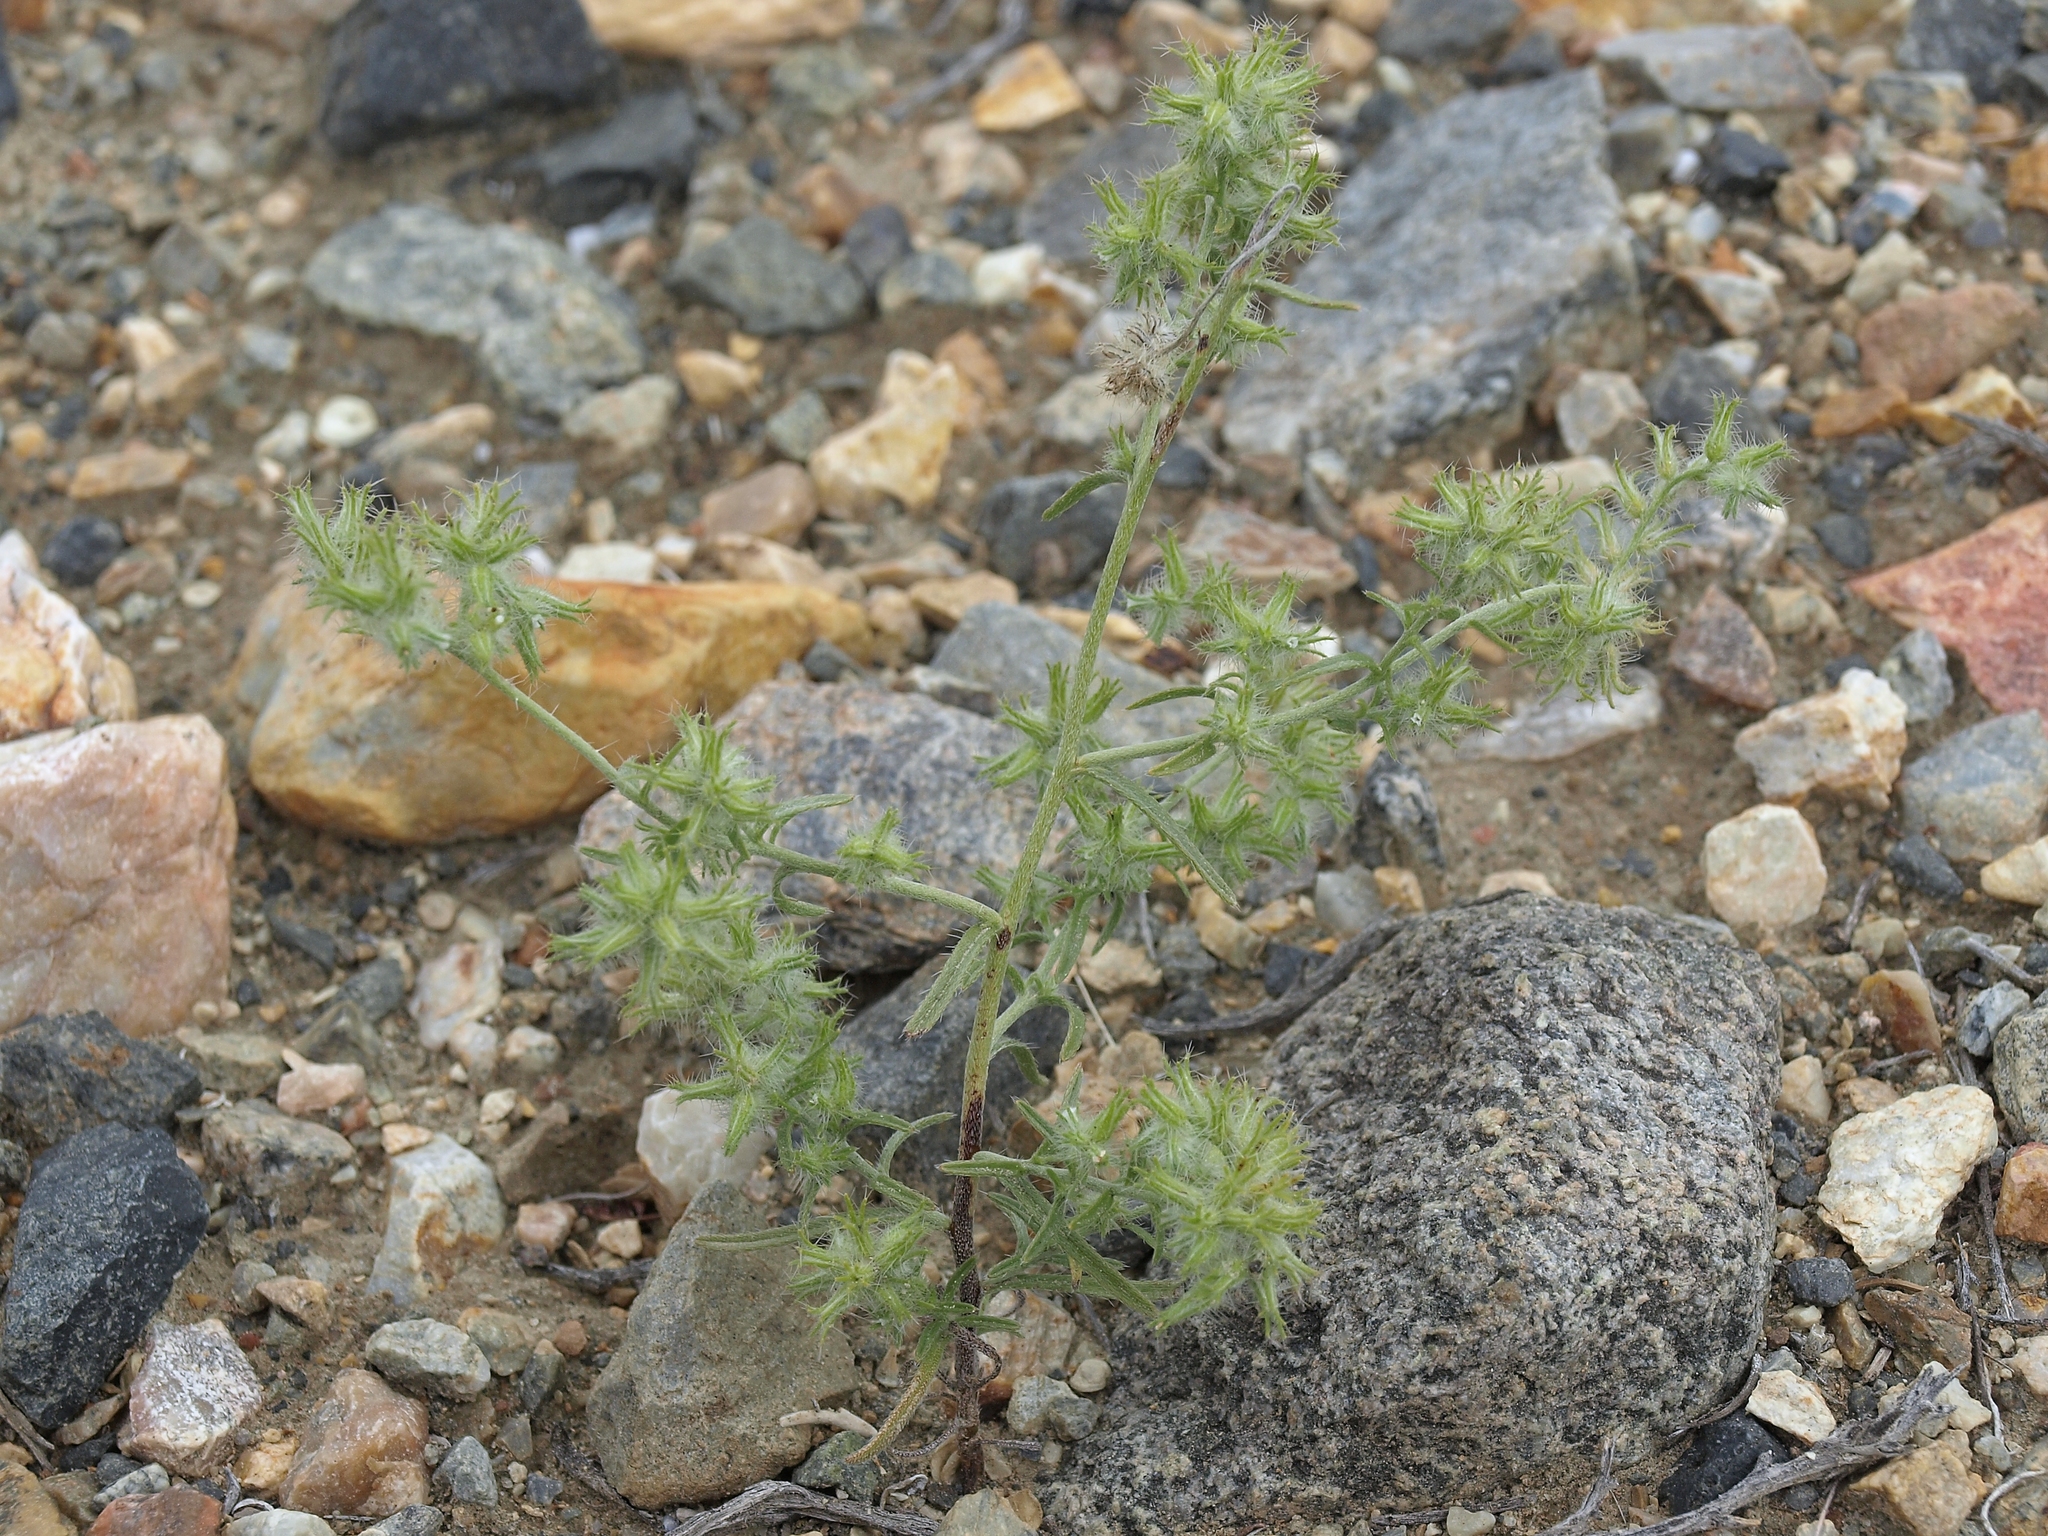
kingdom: Plantae
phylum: Tracheophyta
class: Magnoliopsida
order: Boraginales
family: Boraginaceae
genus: Cryptantha
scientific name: Cryptantha nevadensis
